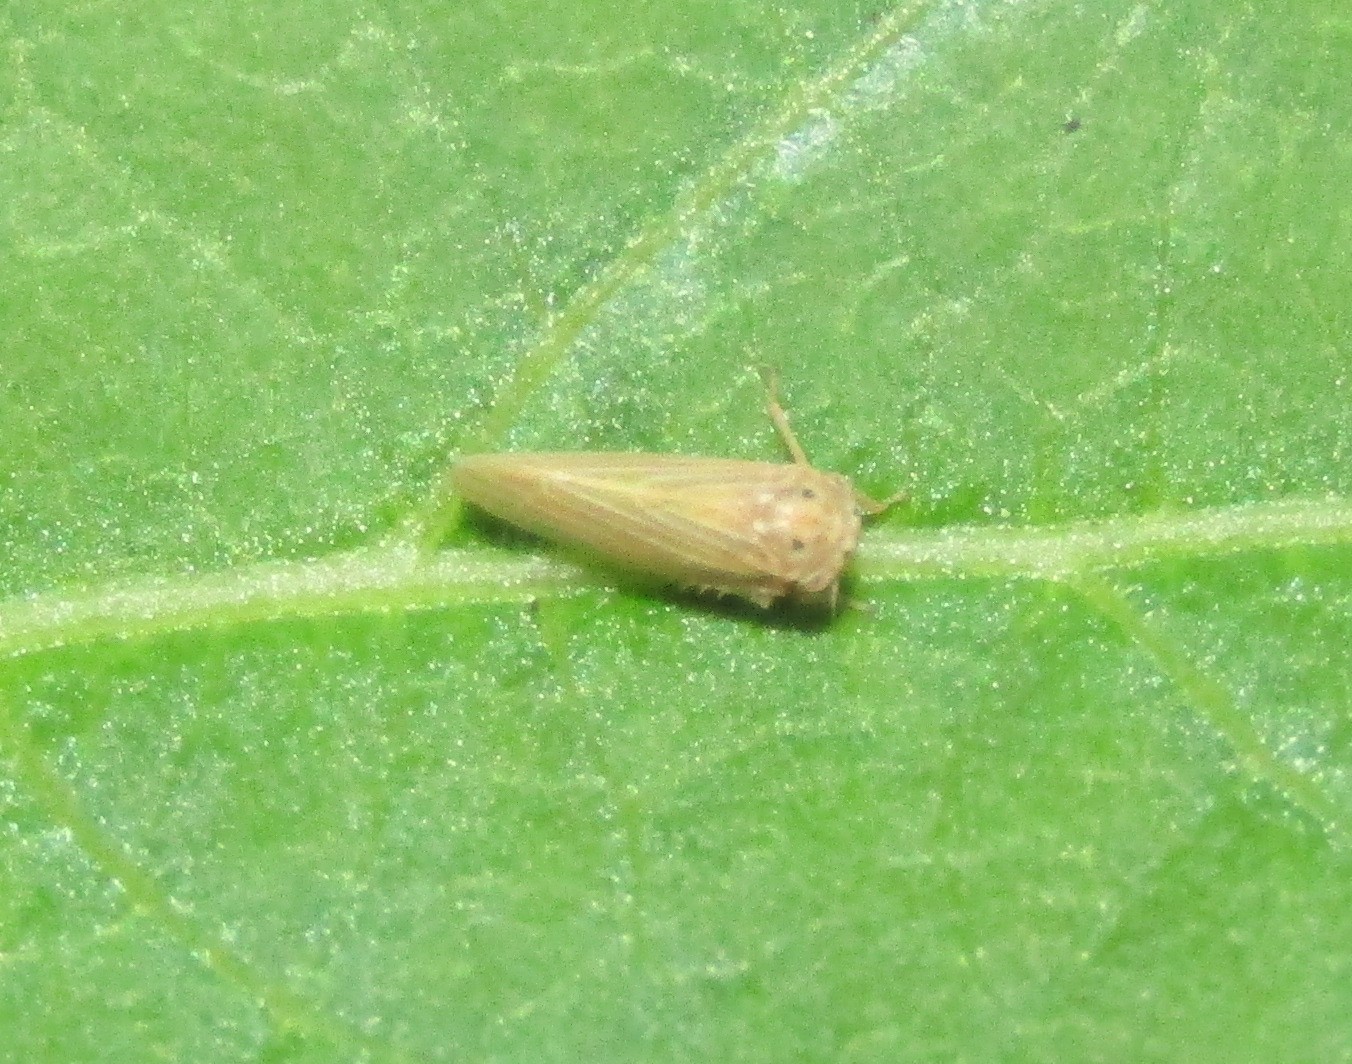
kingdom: Animalia
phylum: Arthropoda
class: Insecta
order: Hemiptera
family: Cicadellidae
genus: Agallia
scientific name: Agallia constricta
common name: The constricted leafhopper
